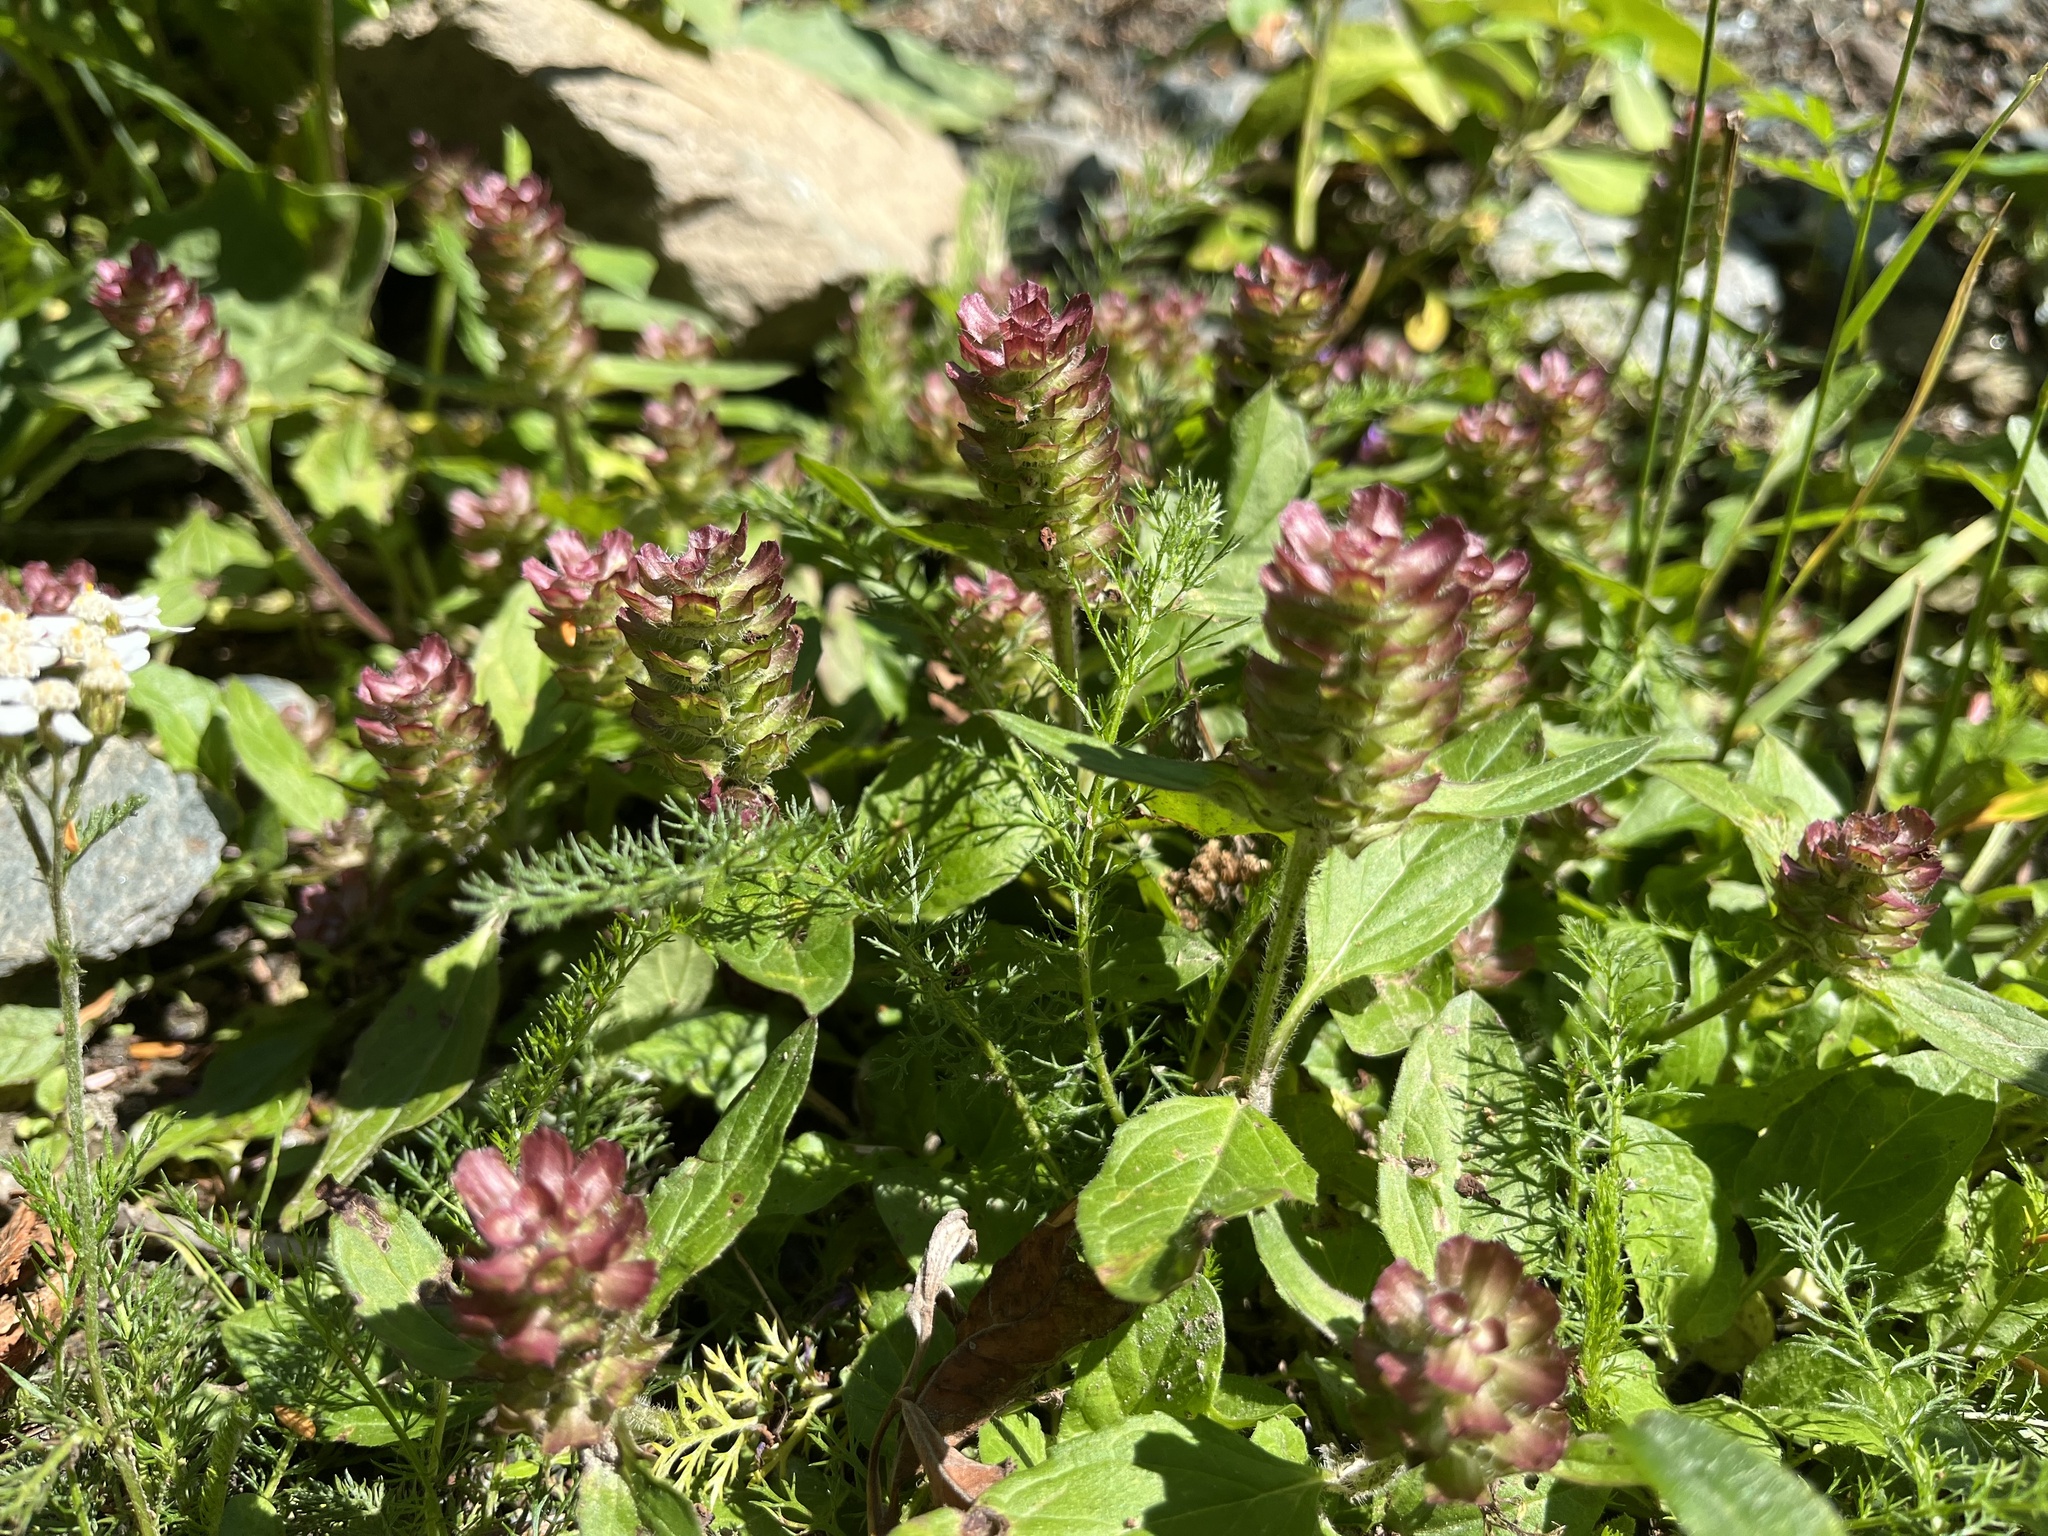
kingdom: Plantae
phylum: Tracheophyta
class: Magnoliopsida
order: Lamiales
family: Lamiaceae
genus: Prunella
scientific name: Prunella vulgaris
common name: Heal-all
